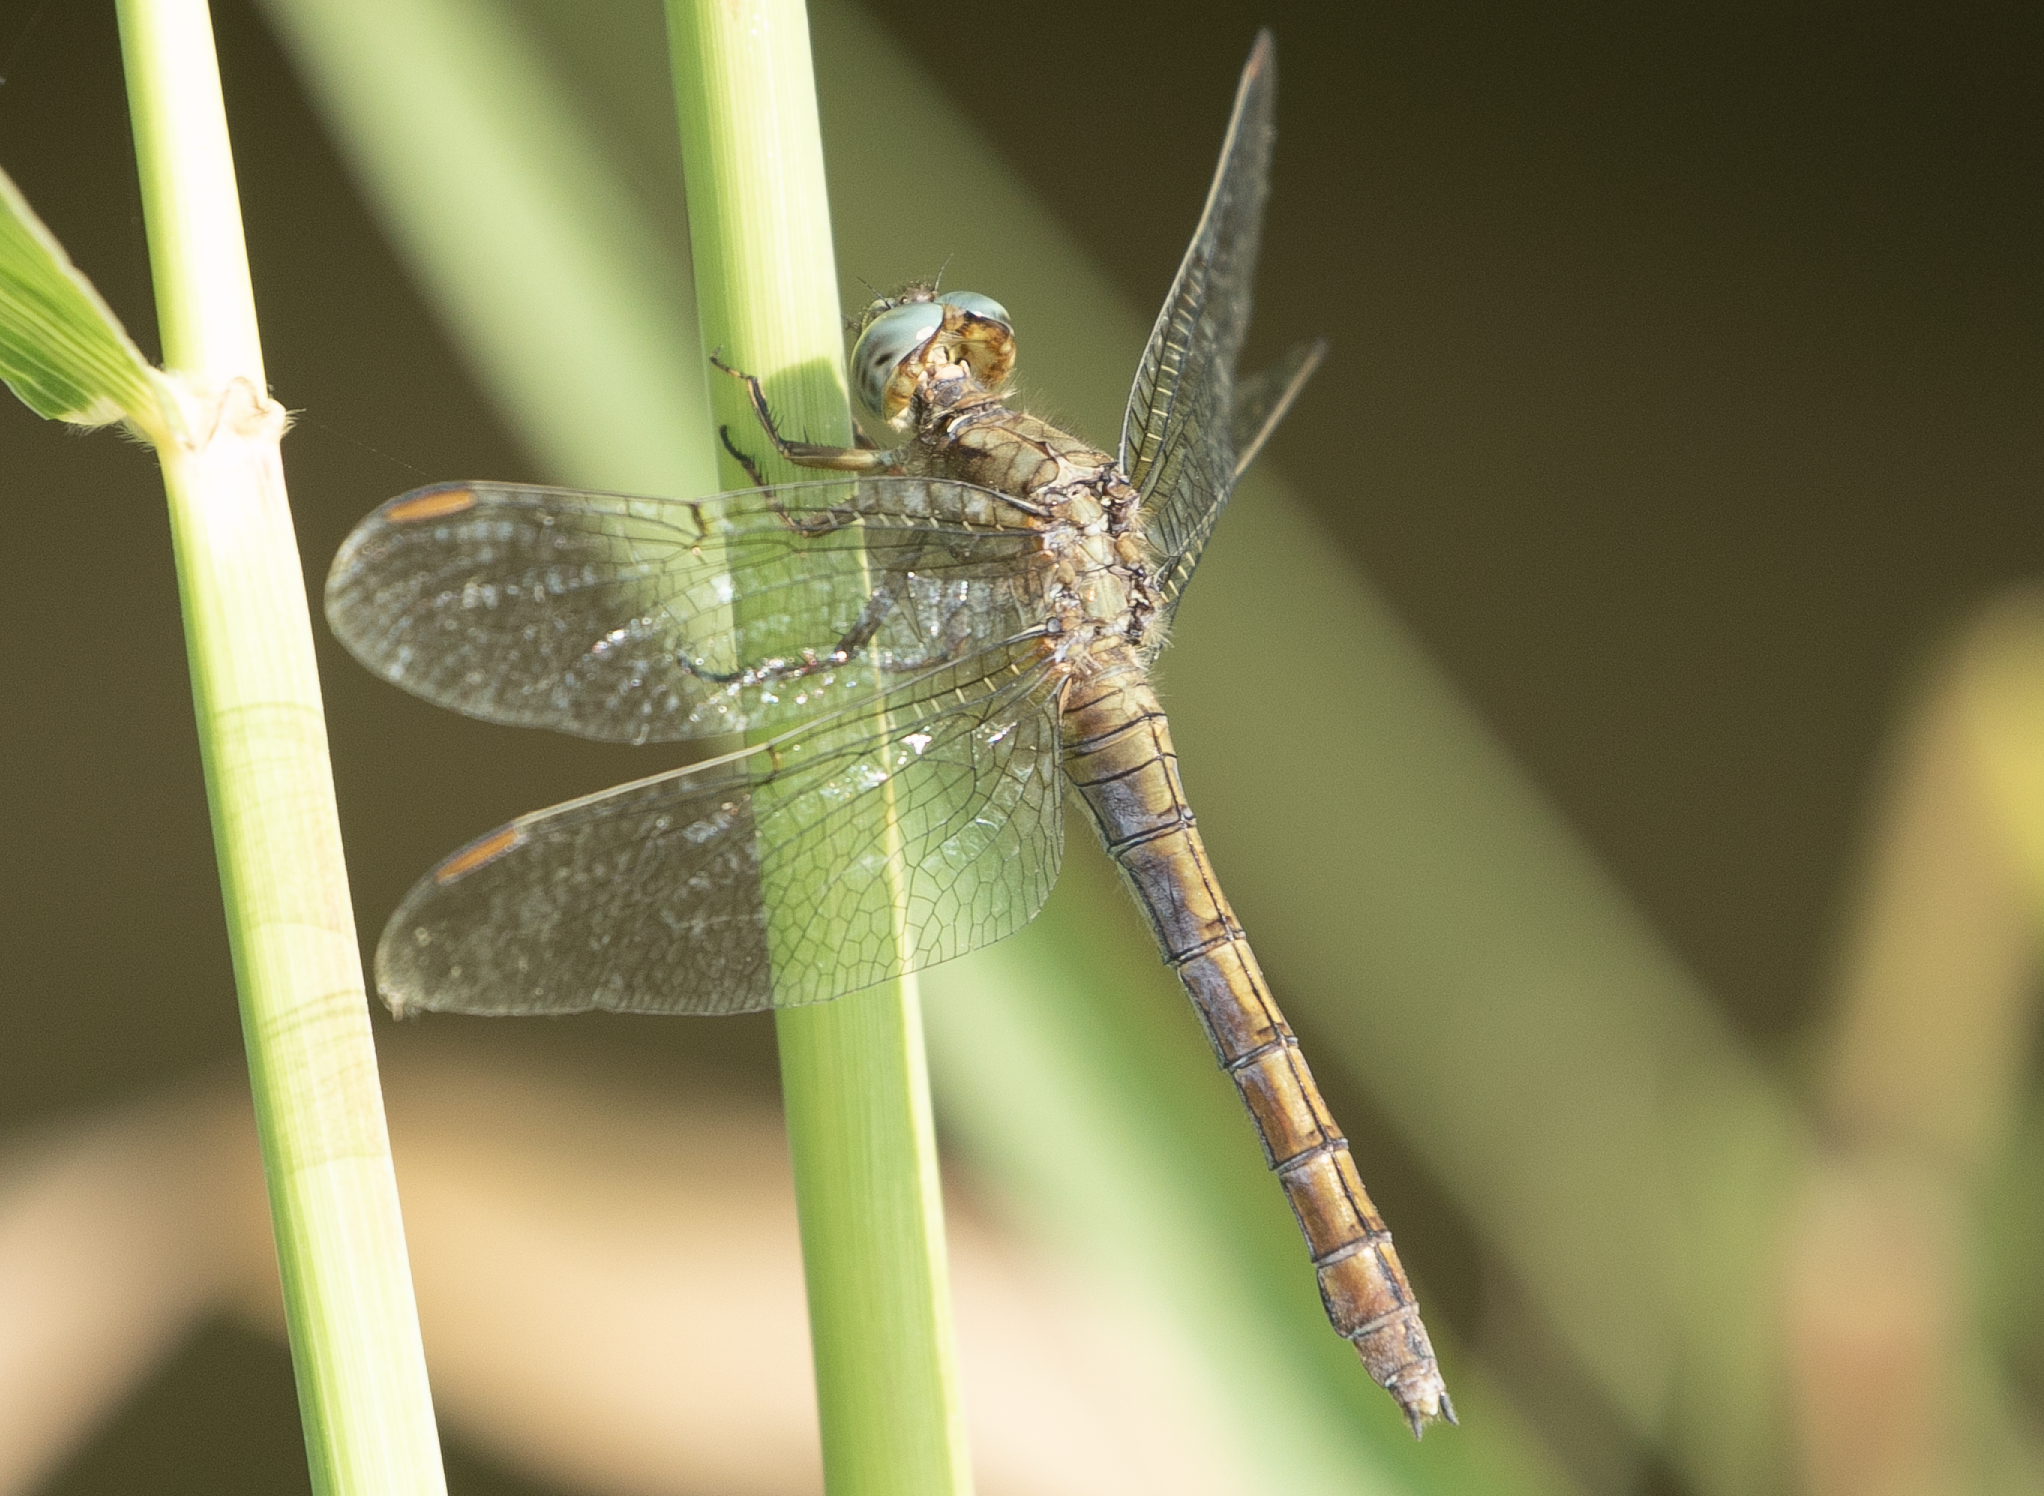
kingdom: Animalia
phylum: Arthropoda
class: Insecta
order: Odonata
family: Libellulidae
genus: Orthetrum
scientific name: Orthetrum coerulescens
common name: Keeled skimmer
